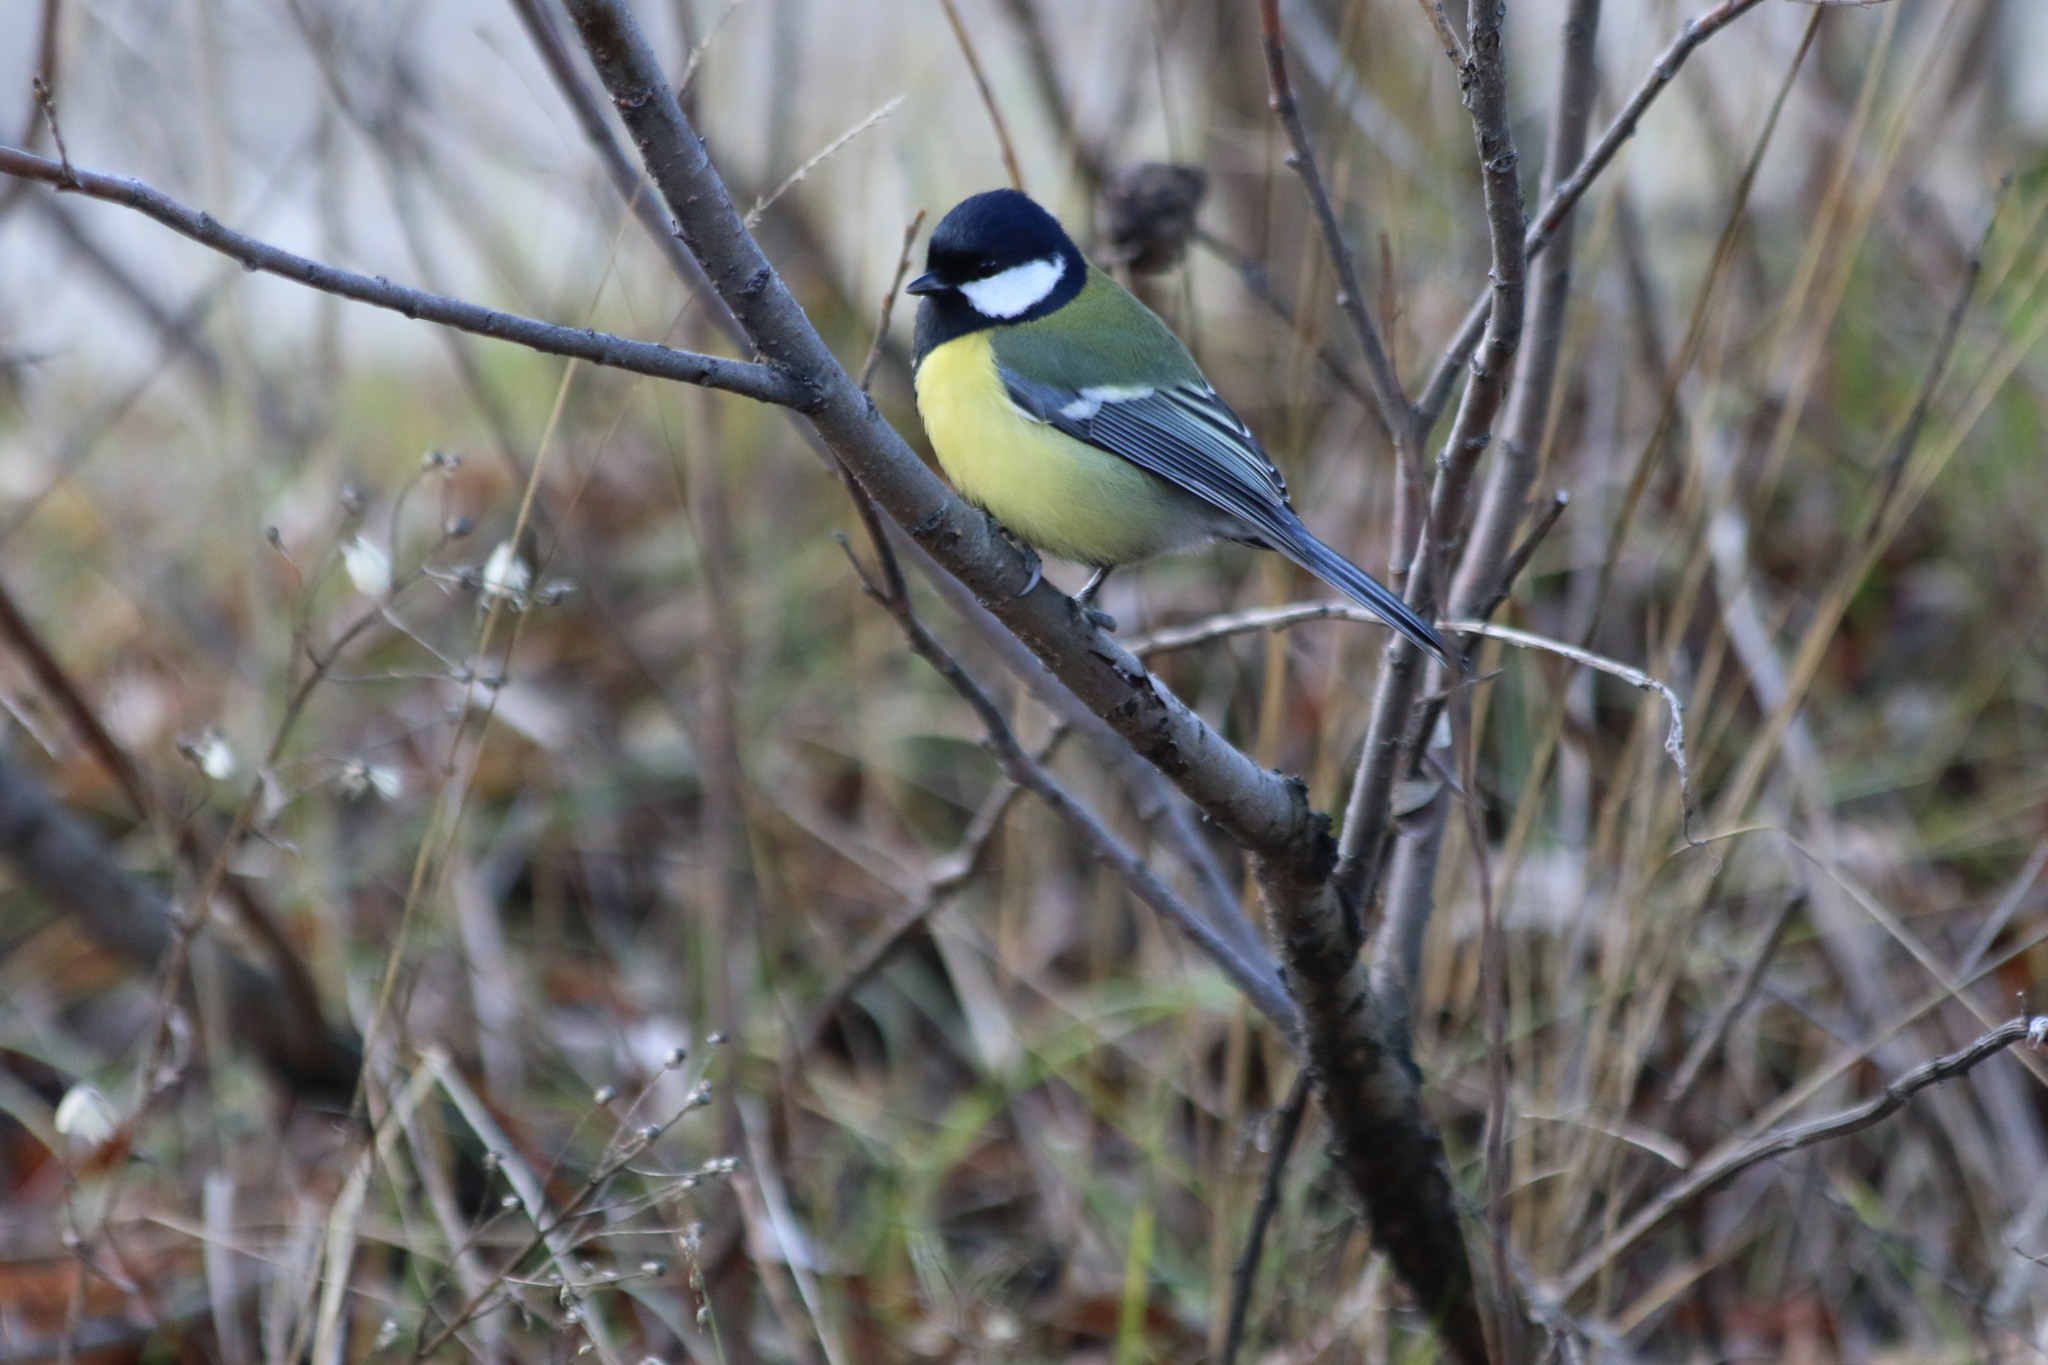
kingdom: Animalia
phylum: Chordata
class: Aves
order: Passeriformes
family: Paridae
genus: Parus
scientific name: Parus major
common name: Great tit
